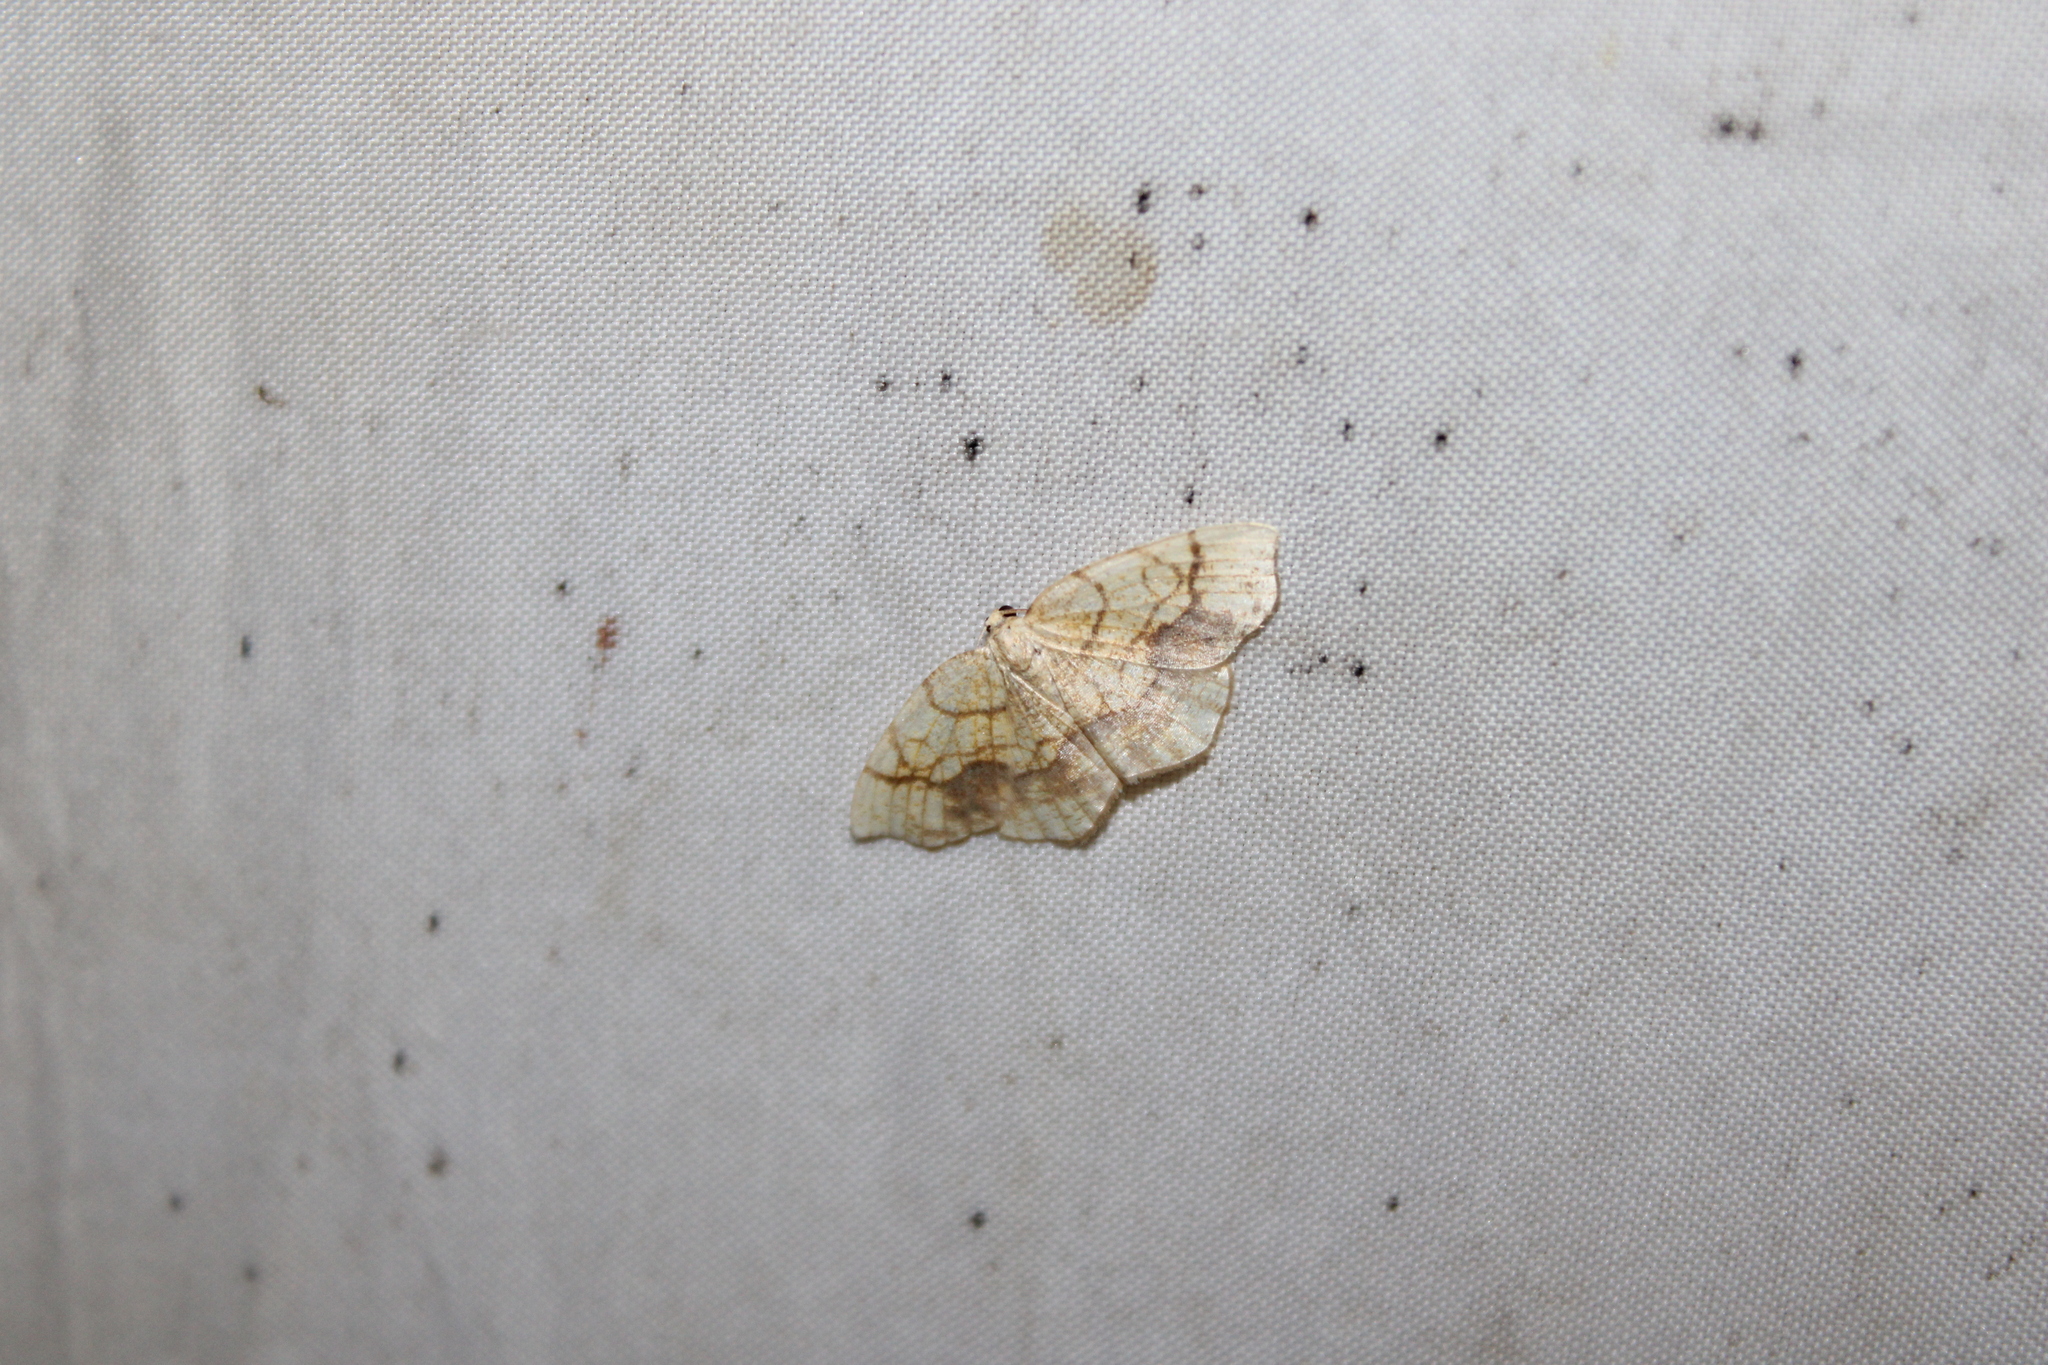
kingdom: Animalia
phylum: Arthropoda
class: Insecta
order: Lepidoptera
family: Geometridae
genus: Nematocampa
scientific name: Nematocampa resistaria
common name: Horned spanworm moth
